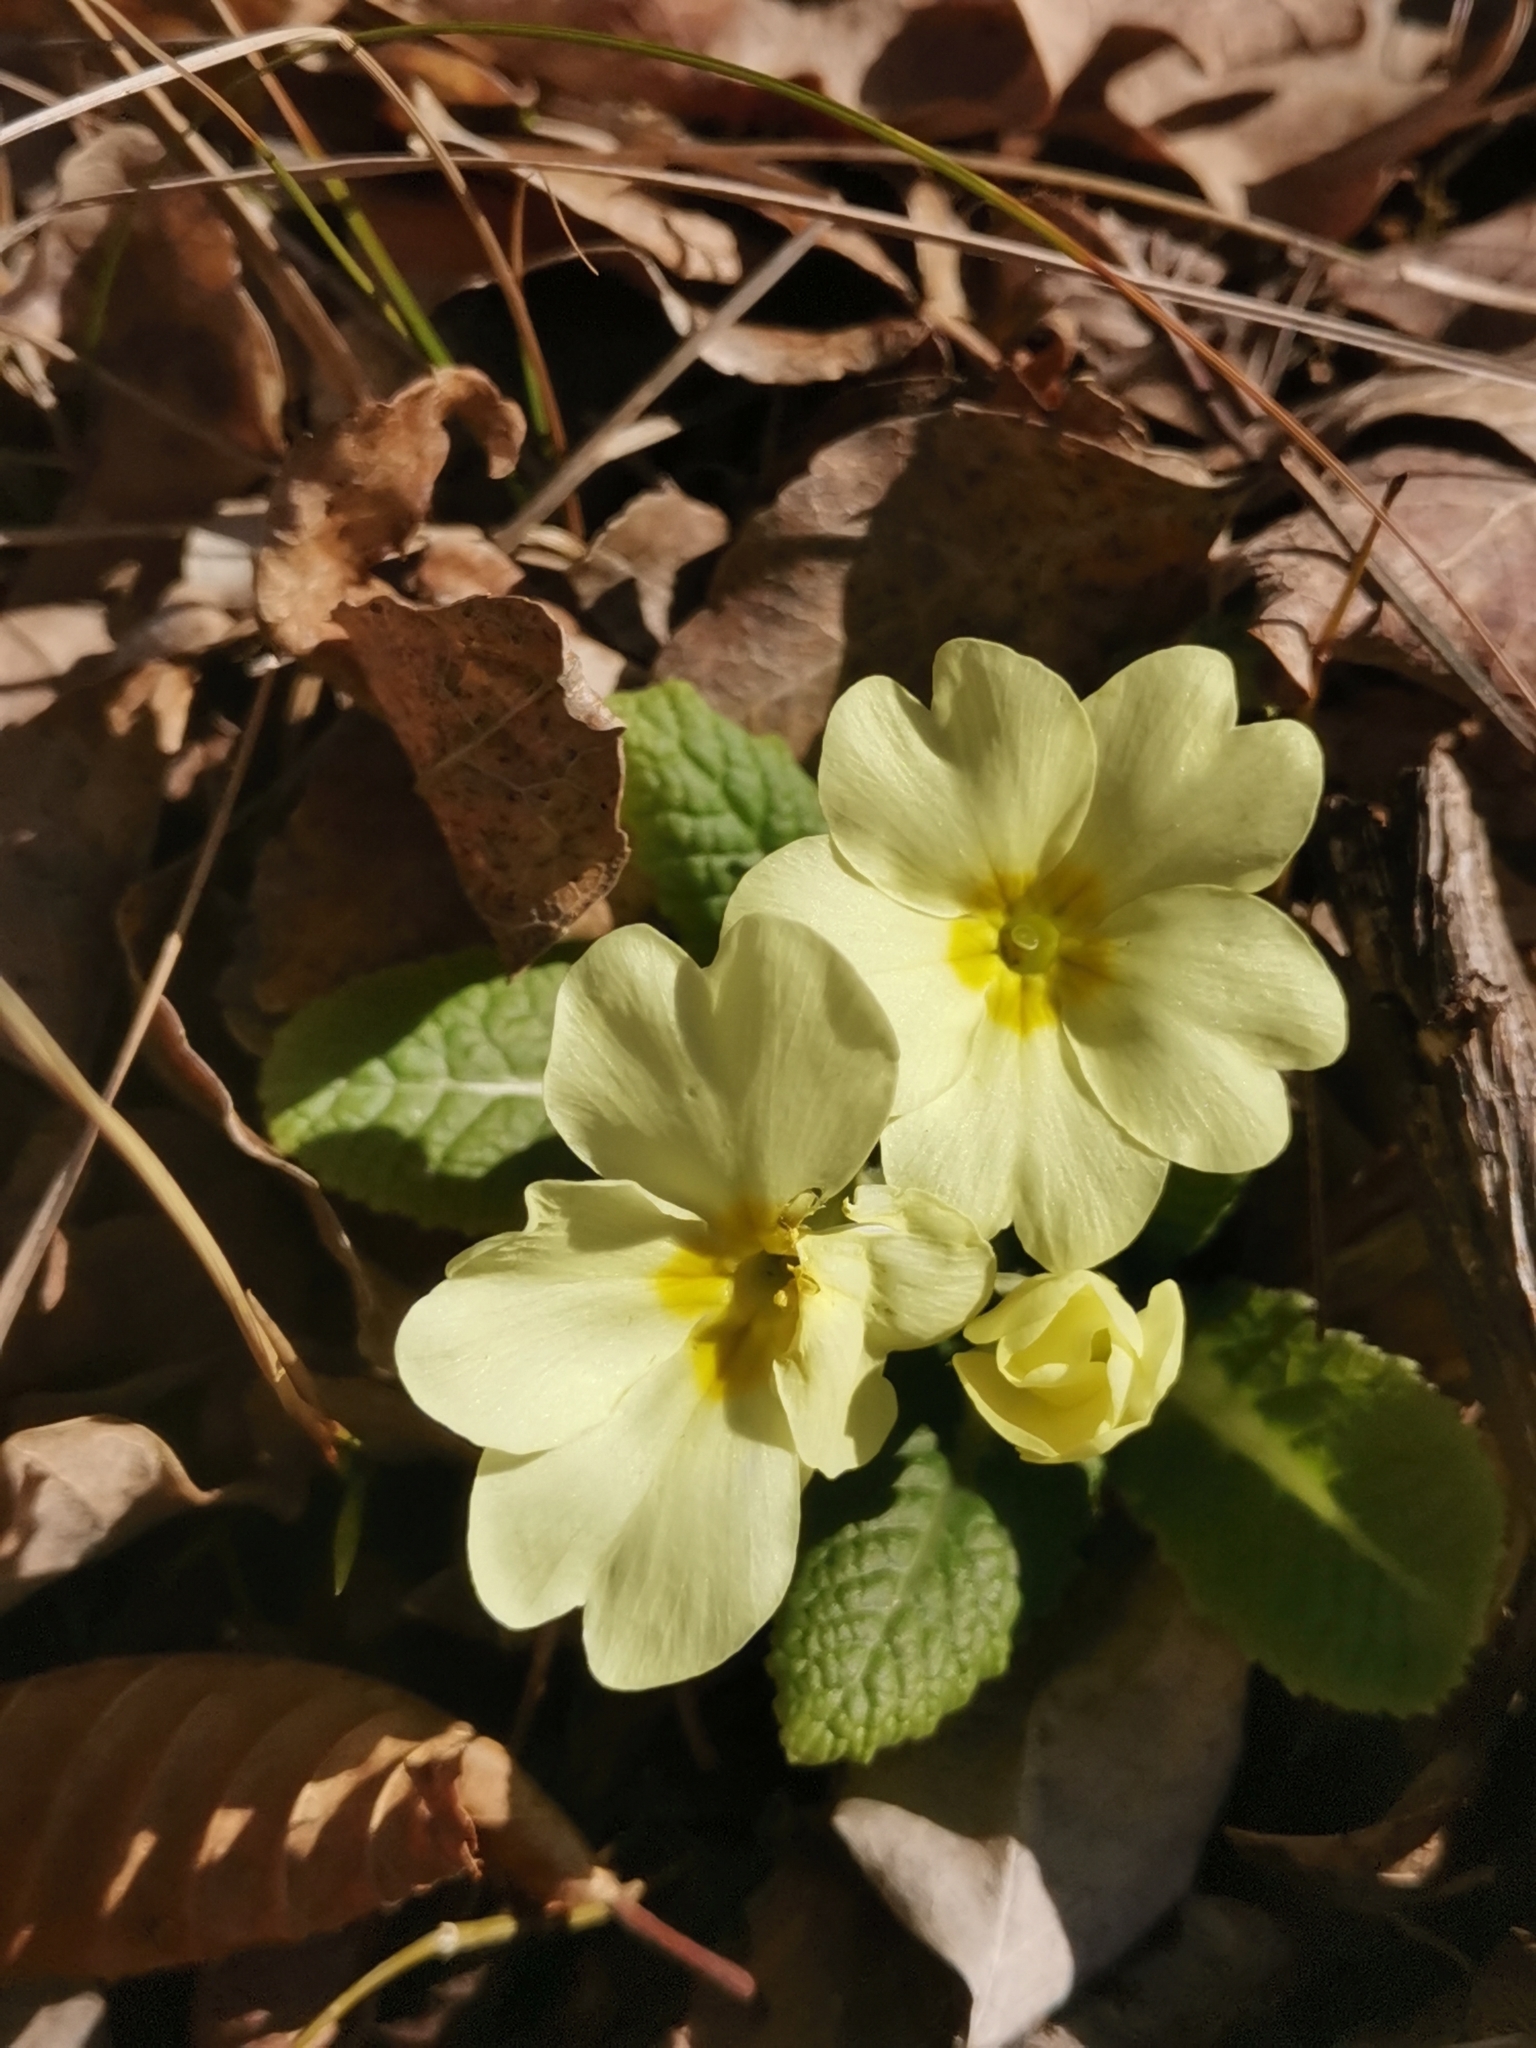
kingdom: Plantae
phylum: Tracheophyta
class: Magnoliopsida
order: Ericales
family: Primulaceae
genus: Primula
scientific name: Primula vulgaris
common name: Primrose
